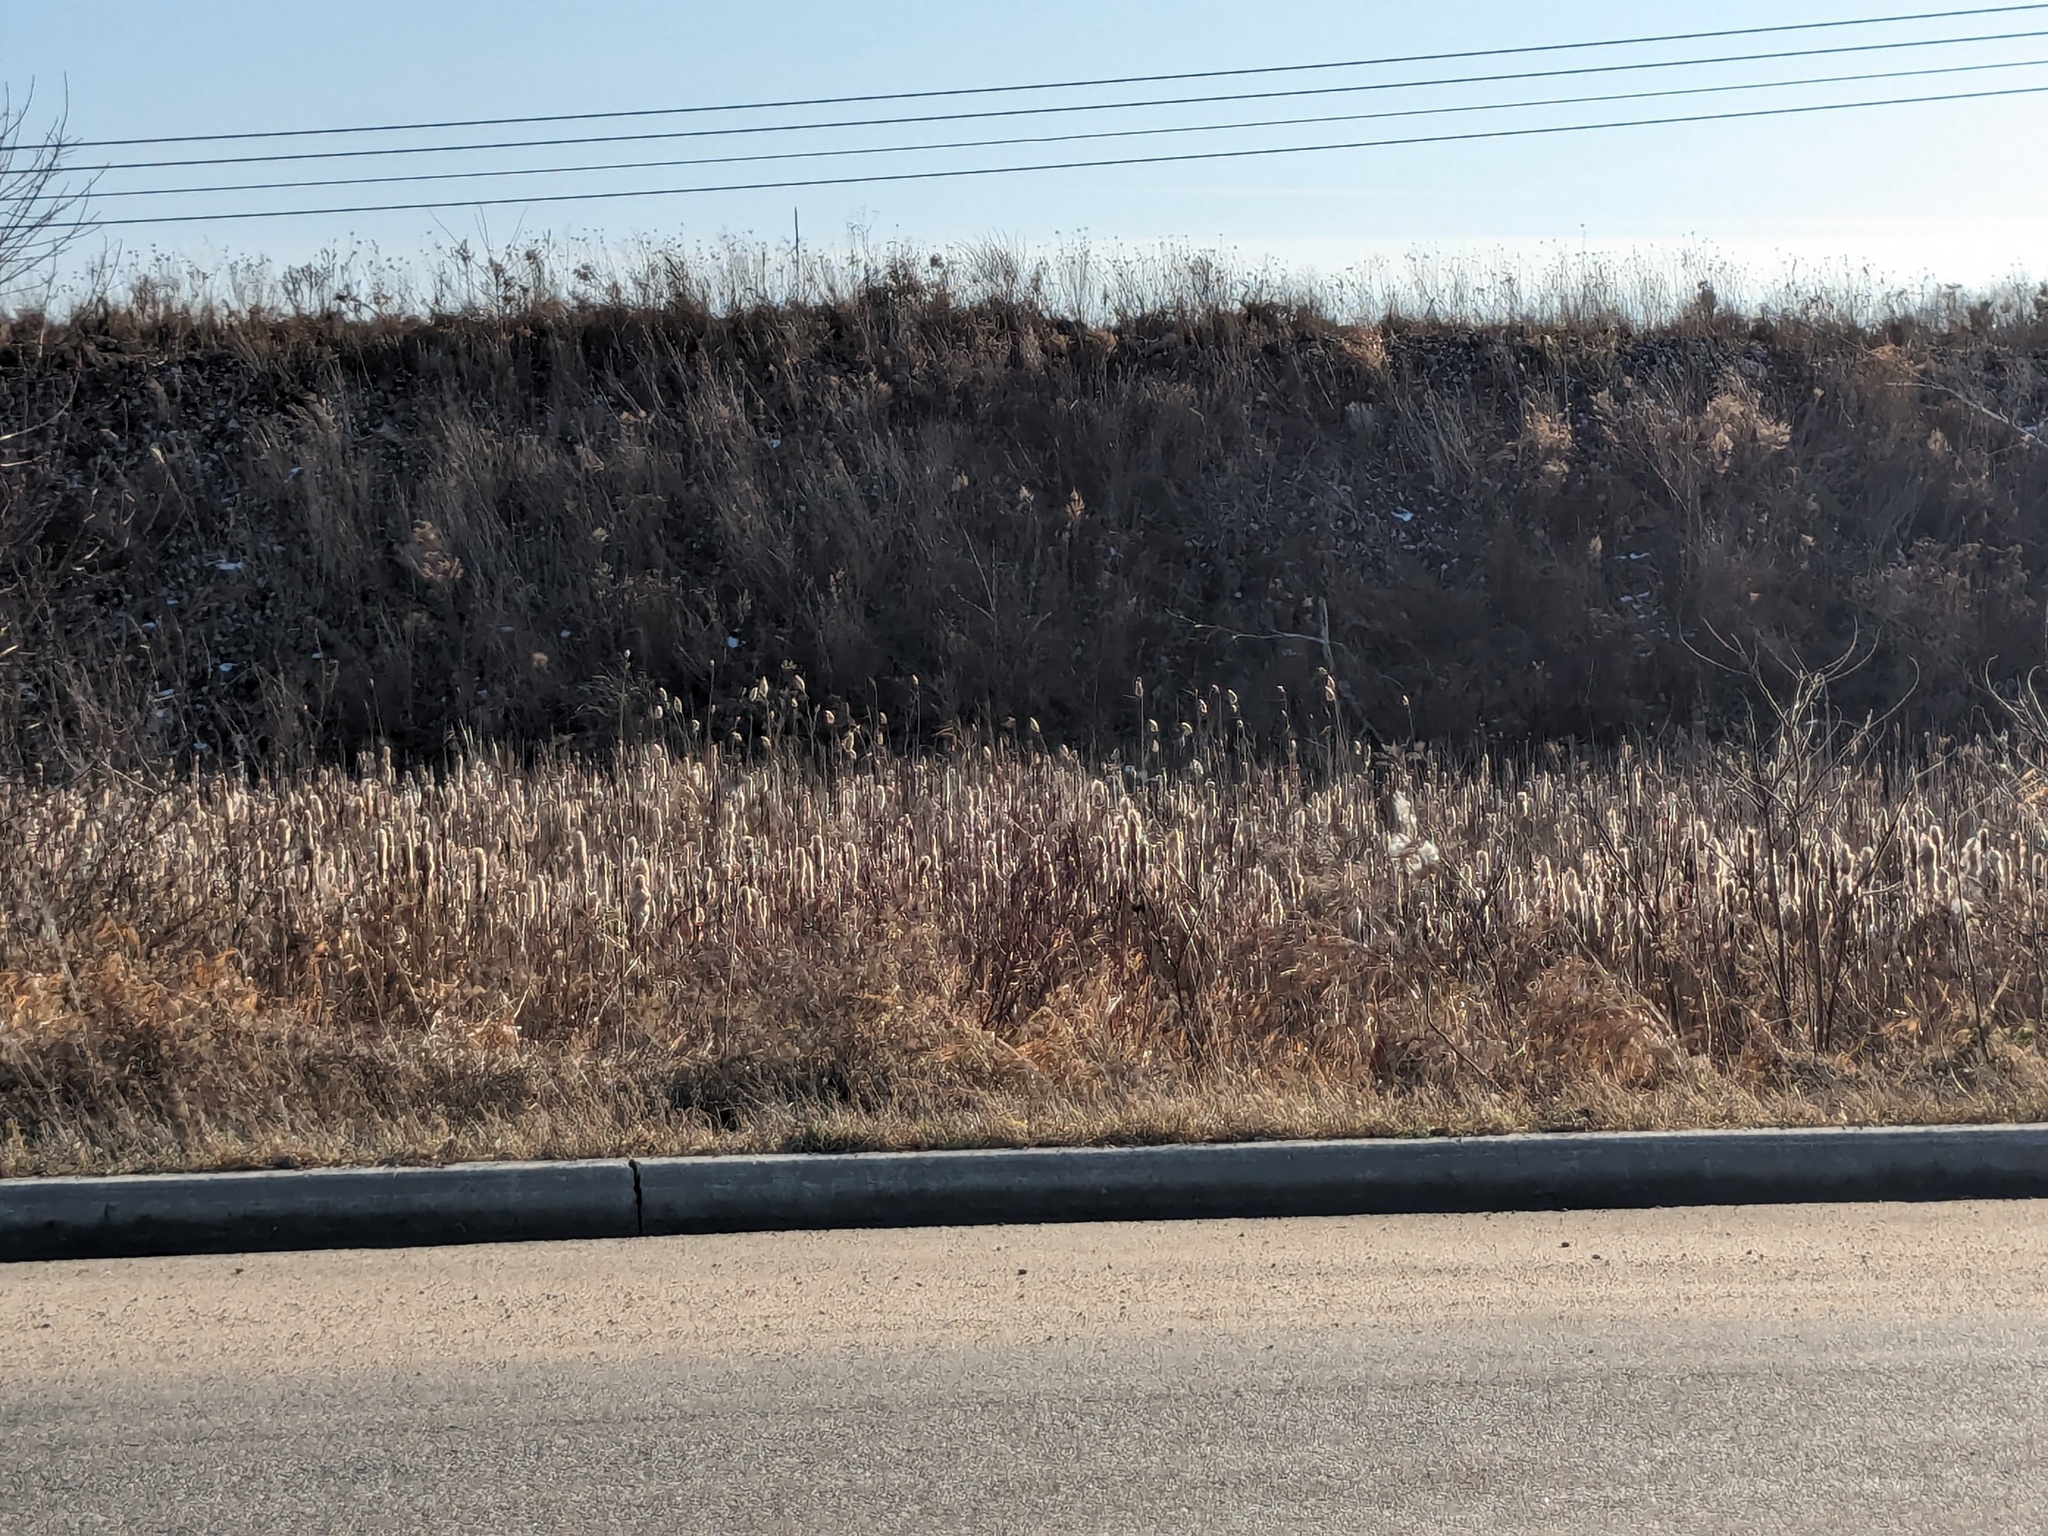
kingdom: Plantae
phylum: Tracheophyta
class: Liliopsida
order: Poales
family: Poaceae
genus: Phragmites
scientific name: Phragmites australis
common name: Common reed
